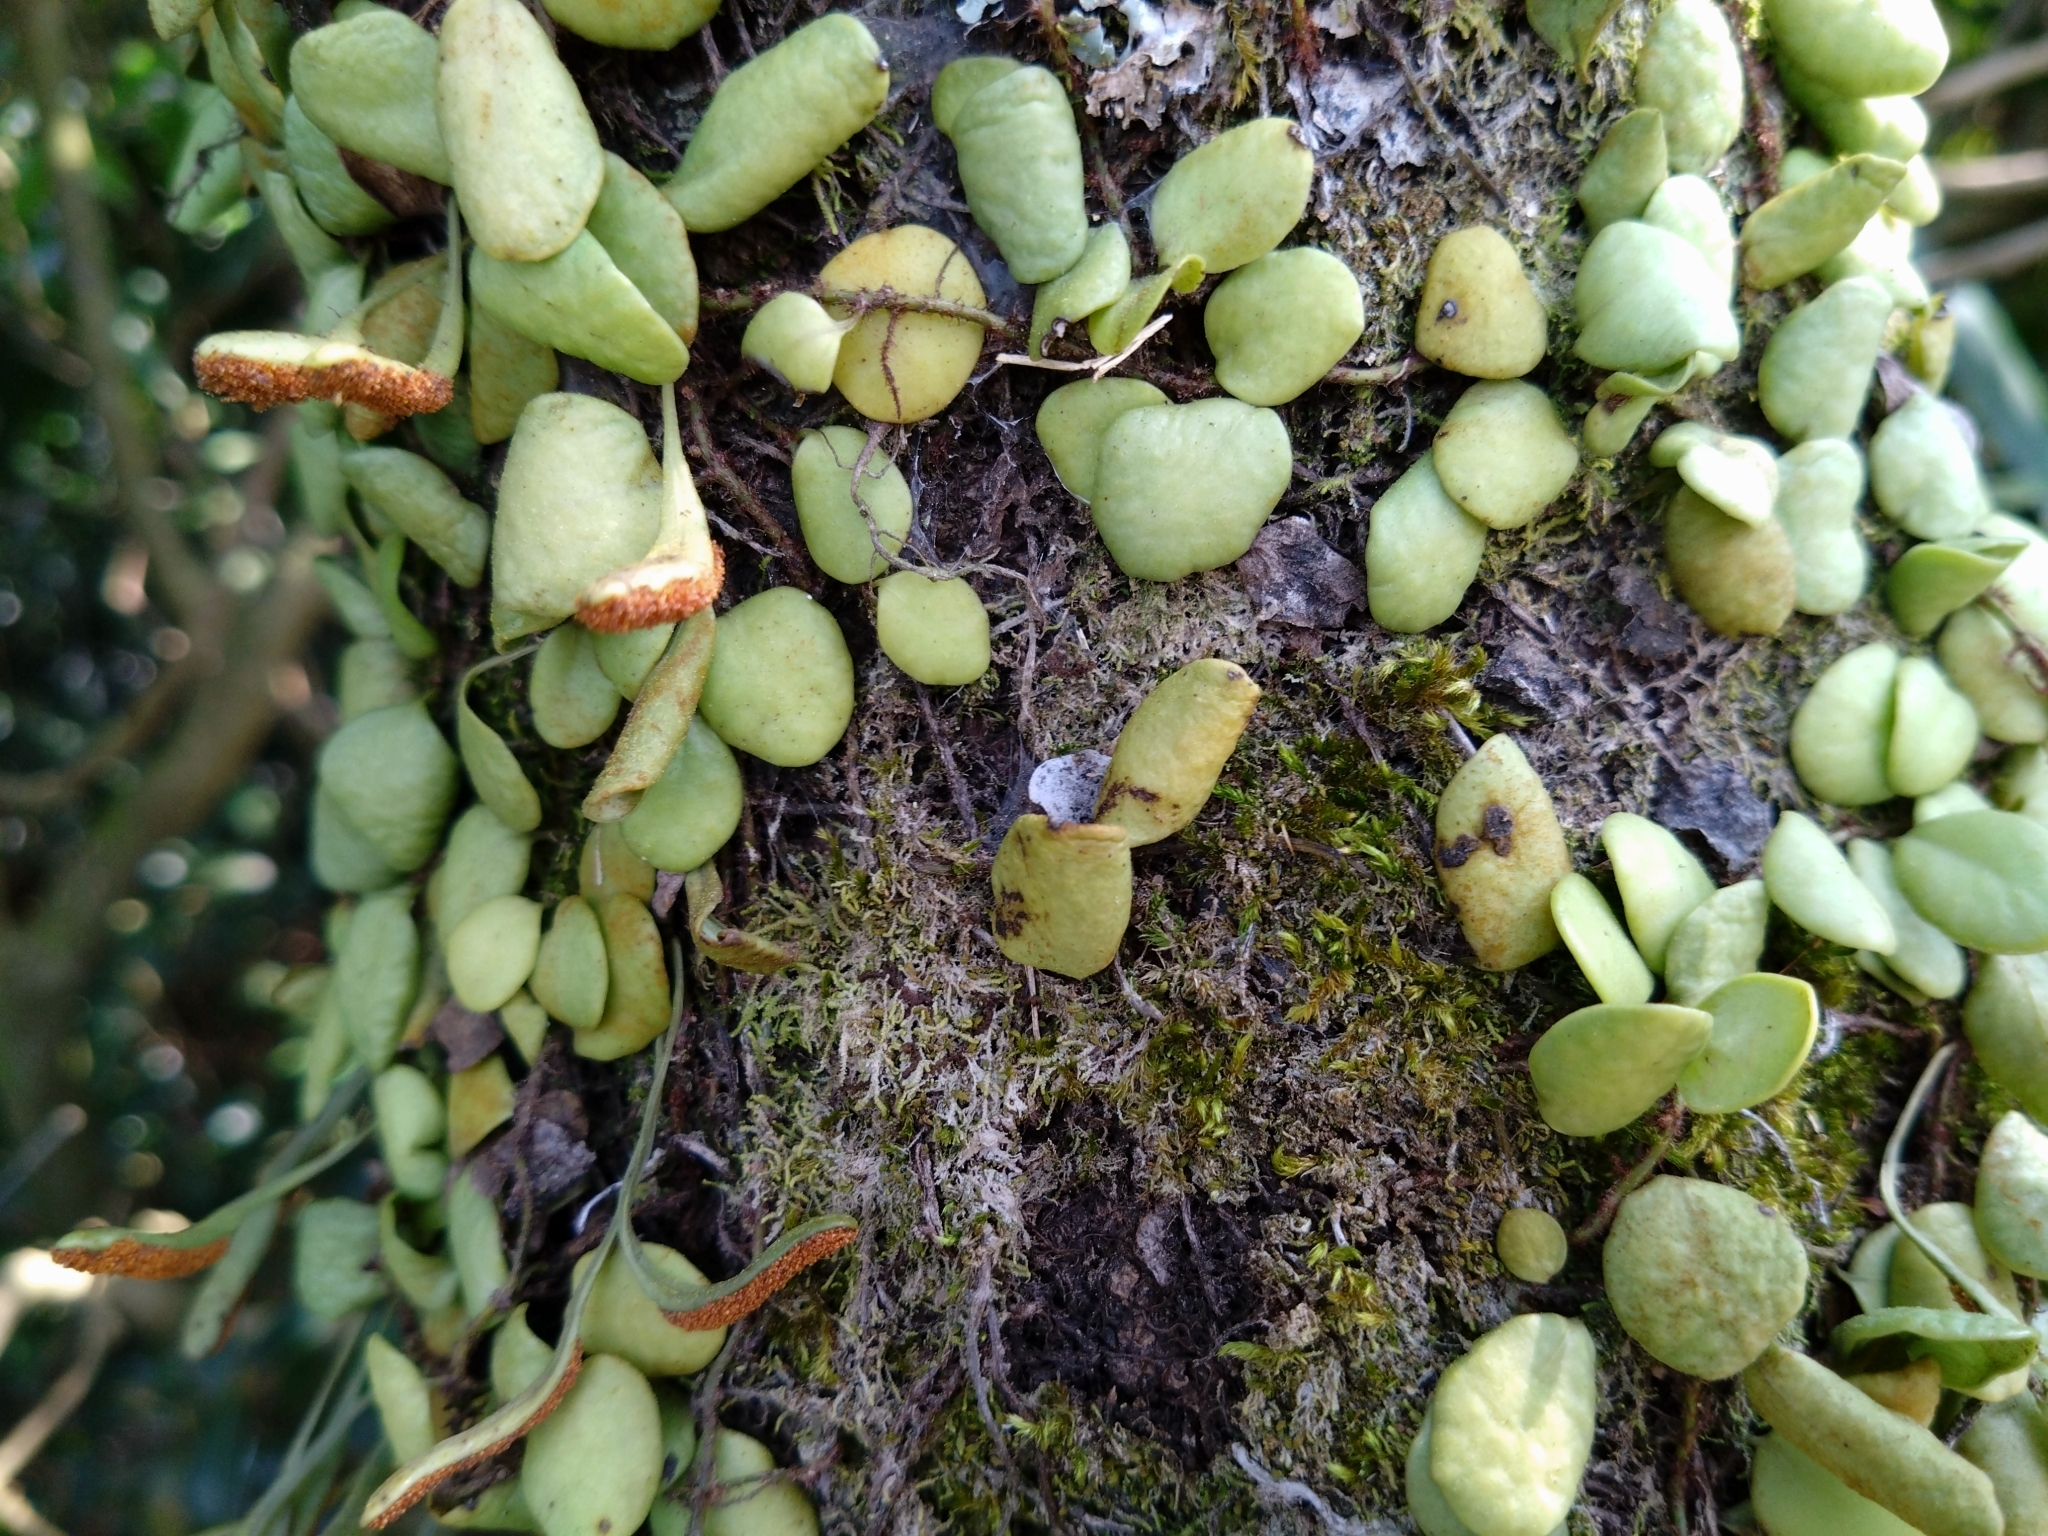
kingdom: Plantae
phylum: Tracheophyta
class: Polypodiopsida
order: Polypodiales
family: Polypodiaceae
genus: Lepisorus
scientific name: Lepisorus microphyllus
